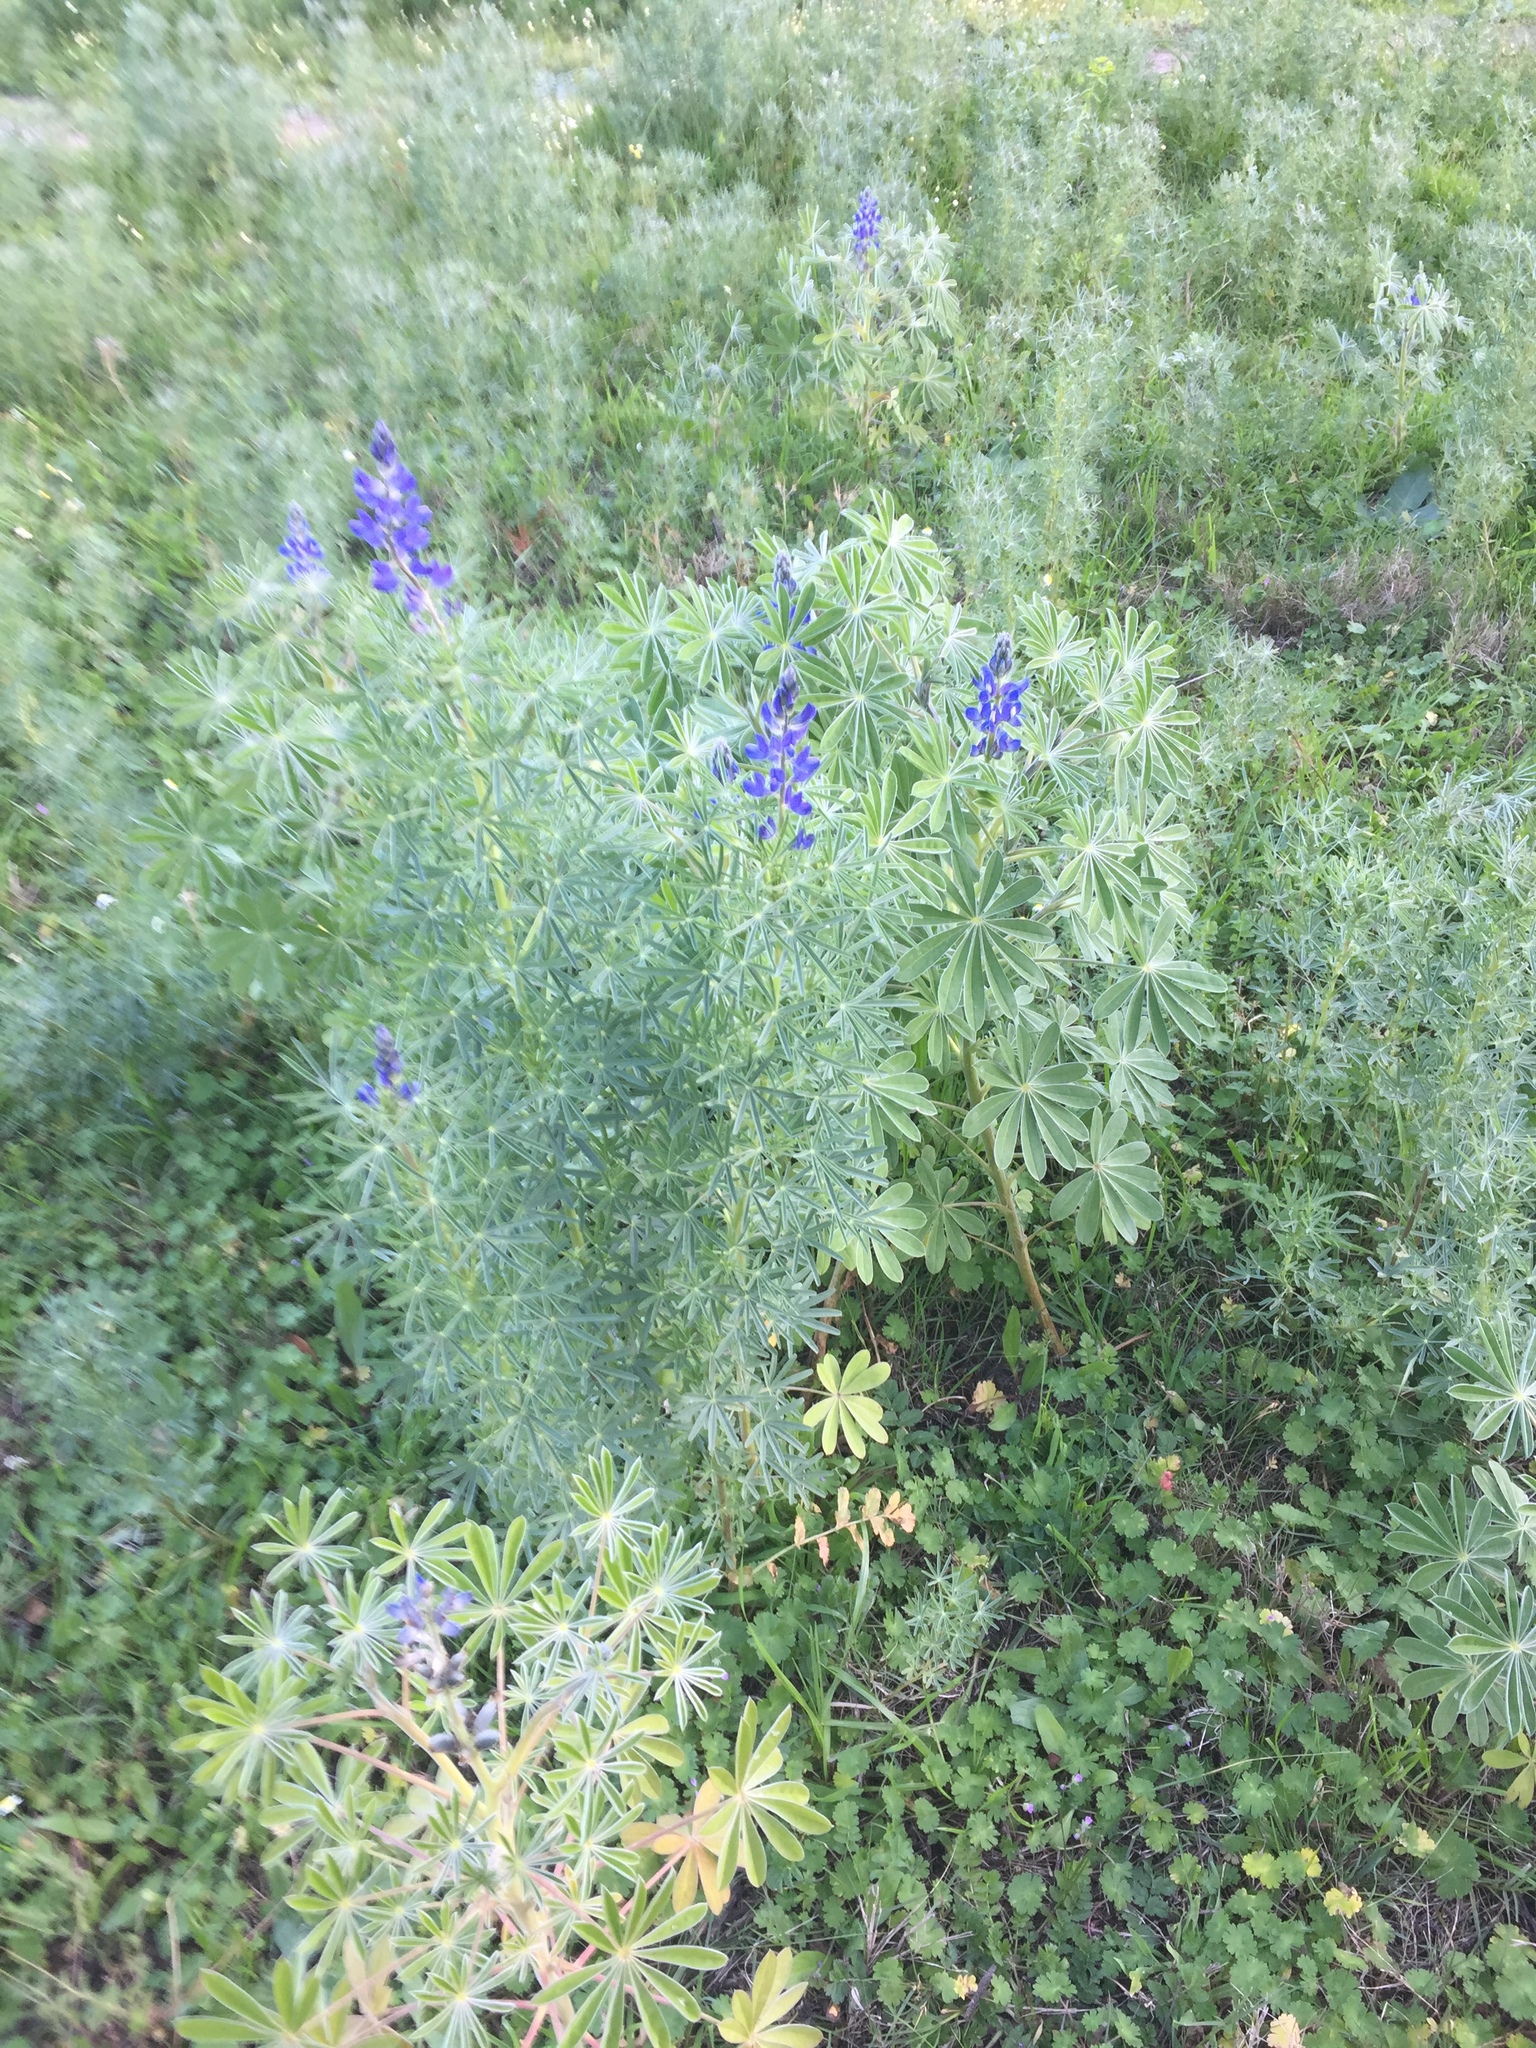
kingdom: Plantae
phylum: Tracheophyta
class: Magnoliopsida
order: Fabales
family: Fabaceae
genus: Lupinus
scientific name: Lupinus angustifolius
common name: Narrow-leaved lupin
